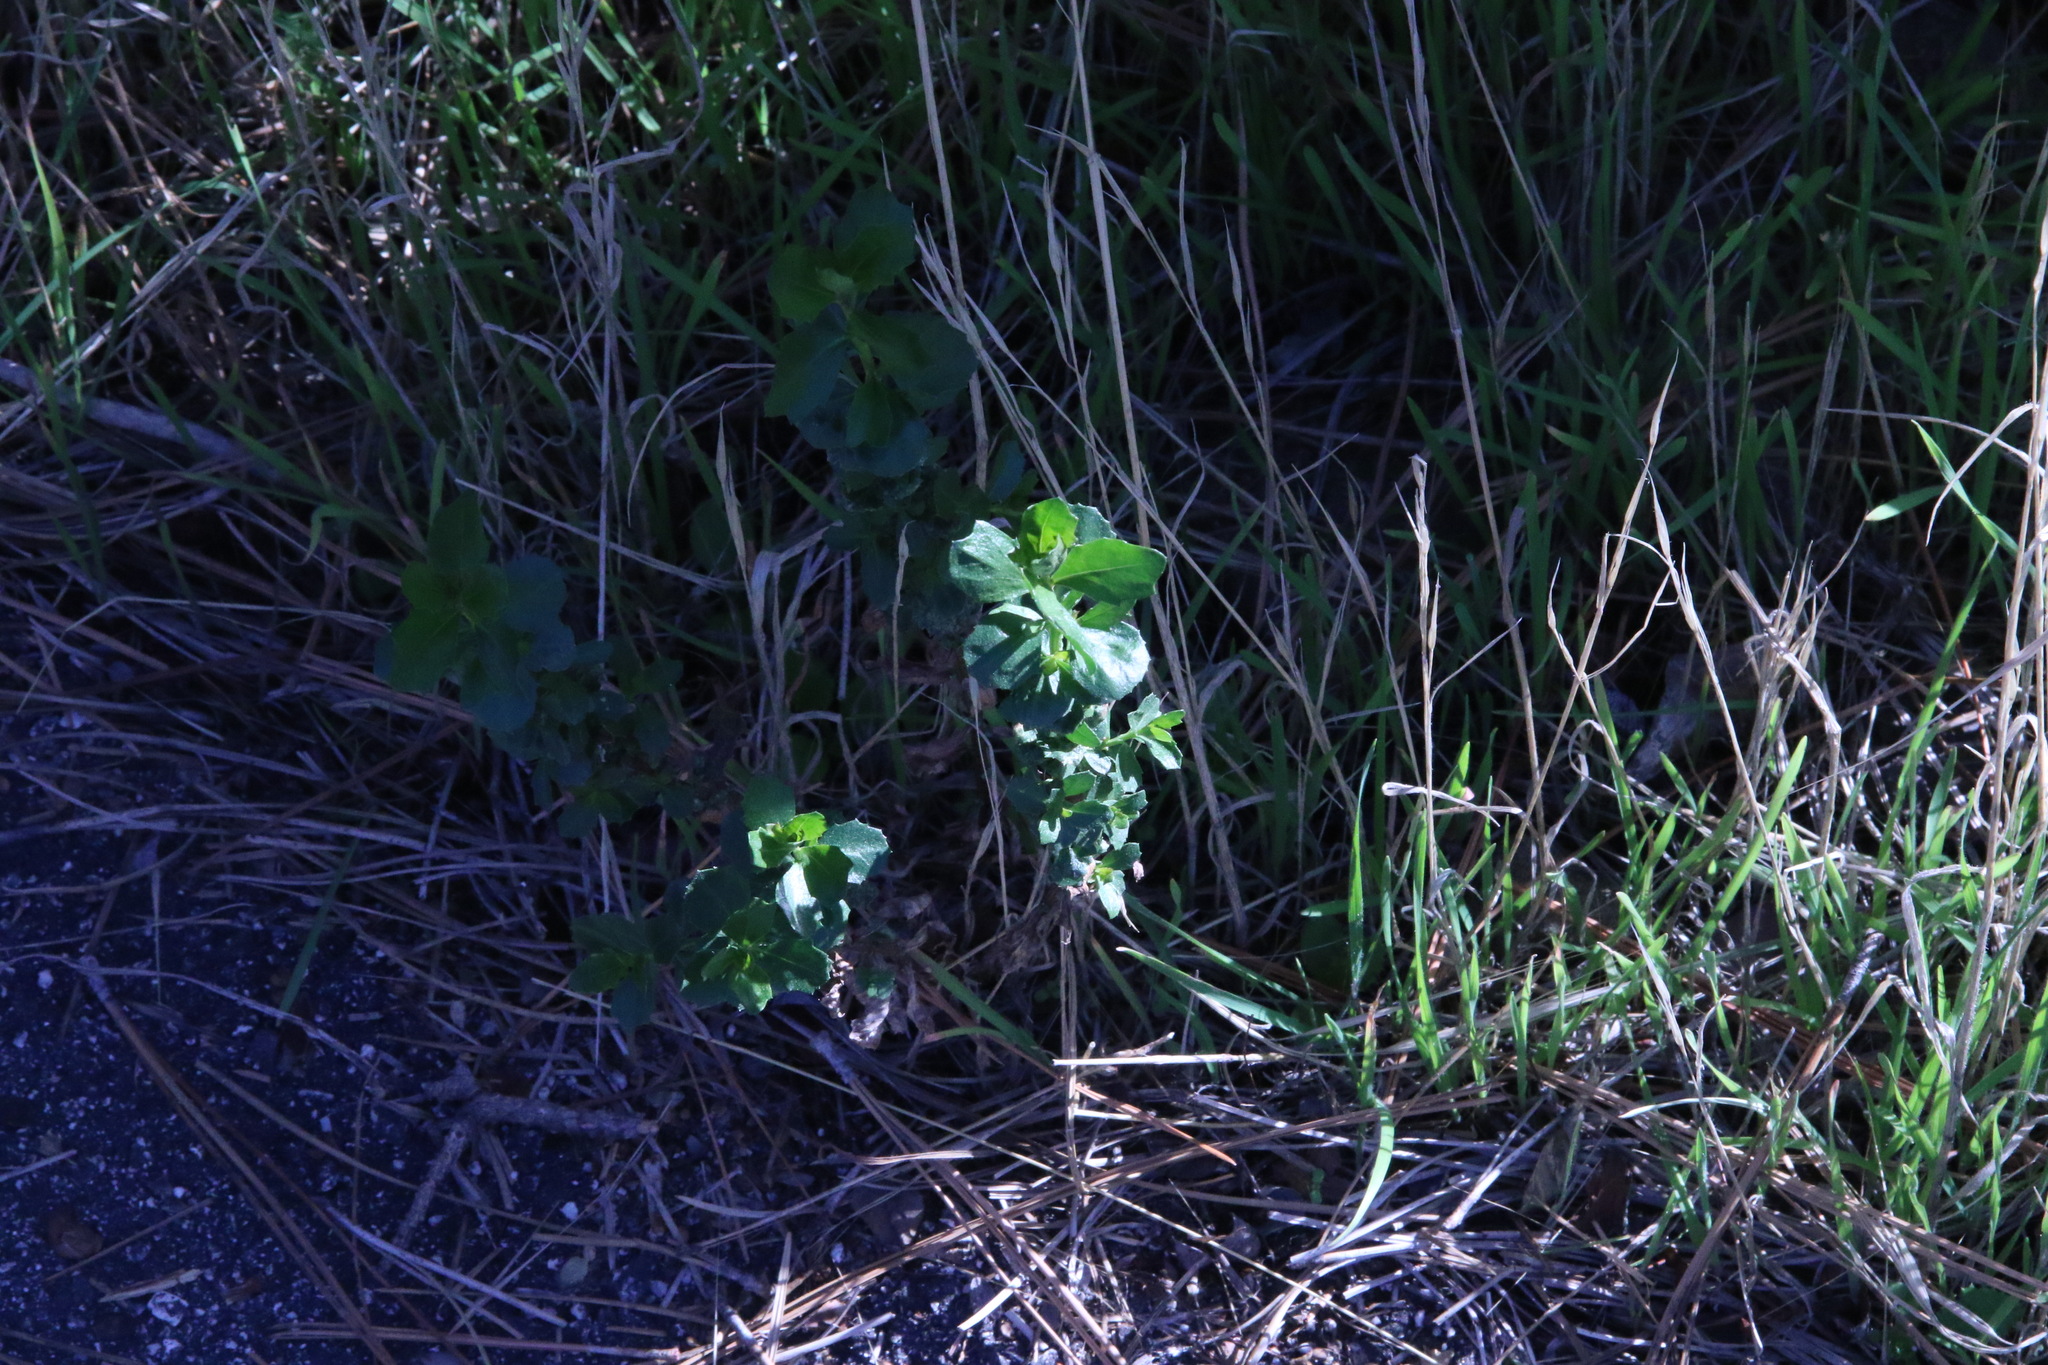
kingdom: Plantae
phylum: Tracheophyta
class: Magnoliopsida
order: Asterales
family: Asteraceae
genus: Baccharis
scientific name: Baccharis pilularis
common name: Coyotebrush
